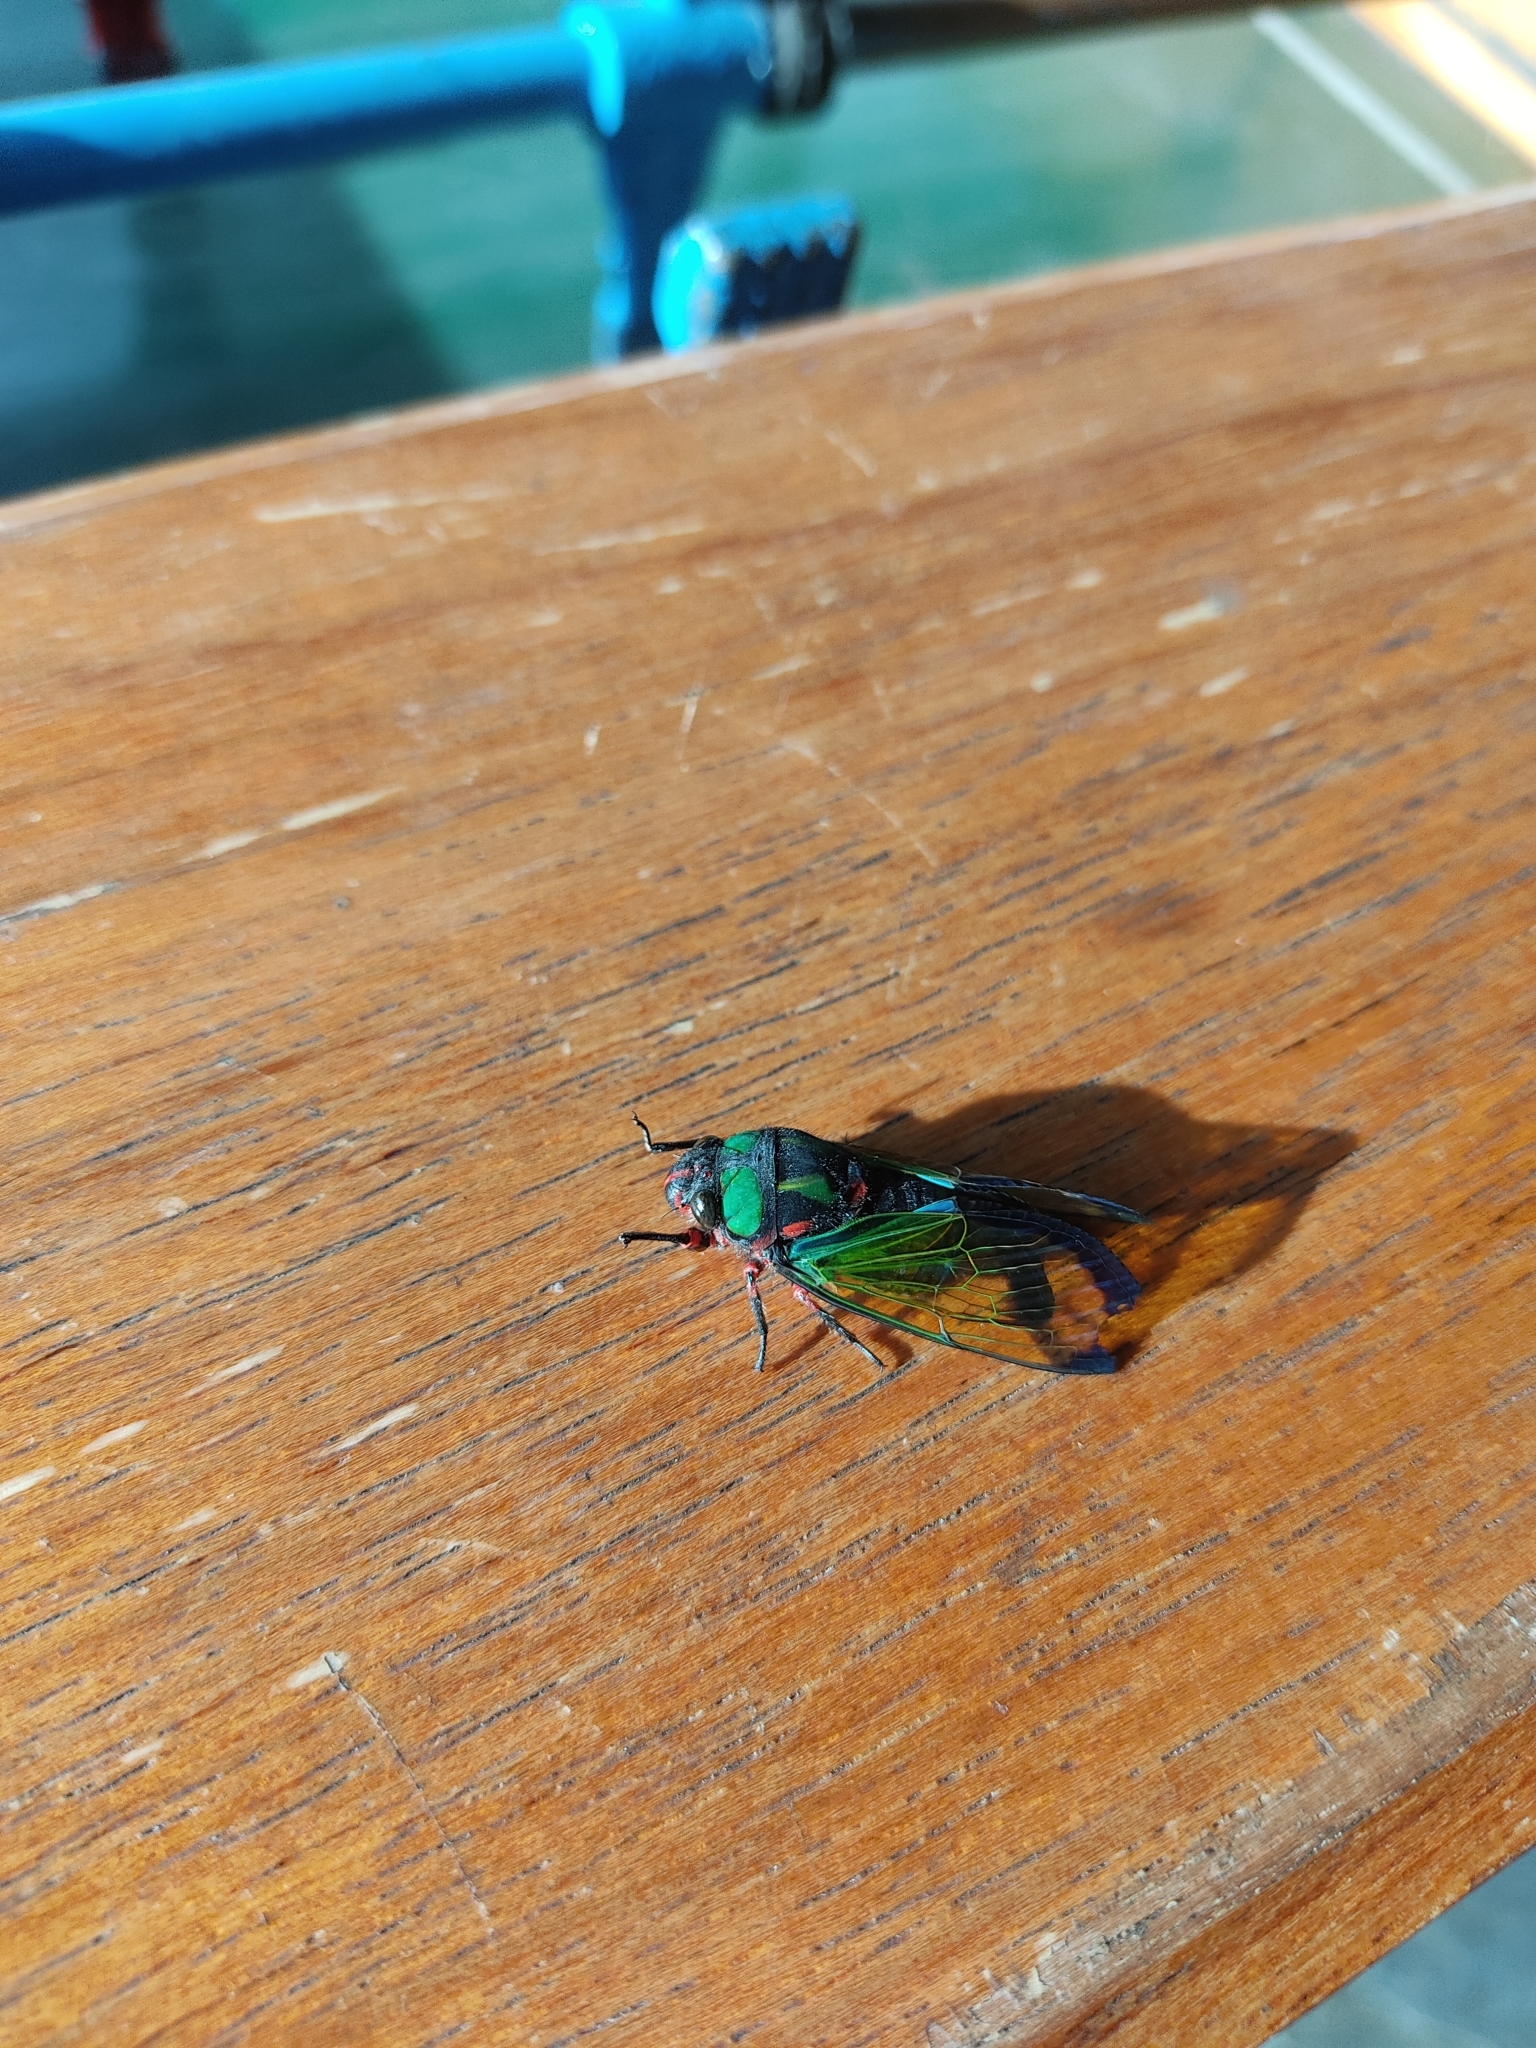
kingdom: Animalia
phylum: Arthropoda
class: Insecta
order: Hemiptera
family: Cicadidae
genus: Carineta
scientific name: Carineta diardi
